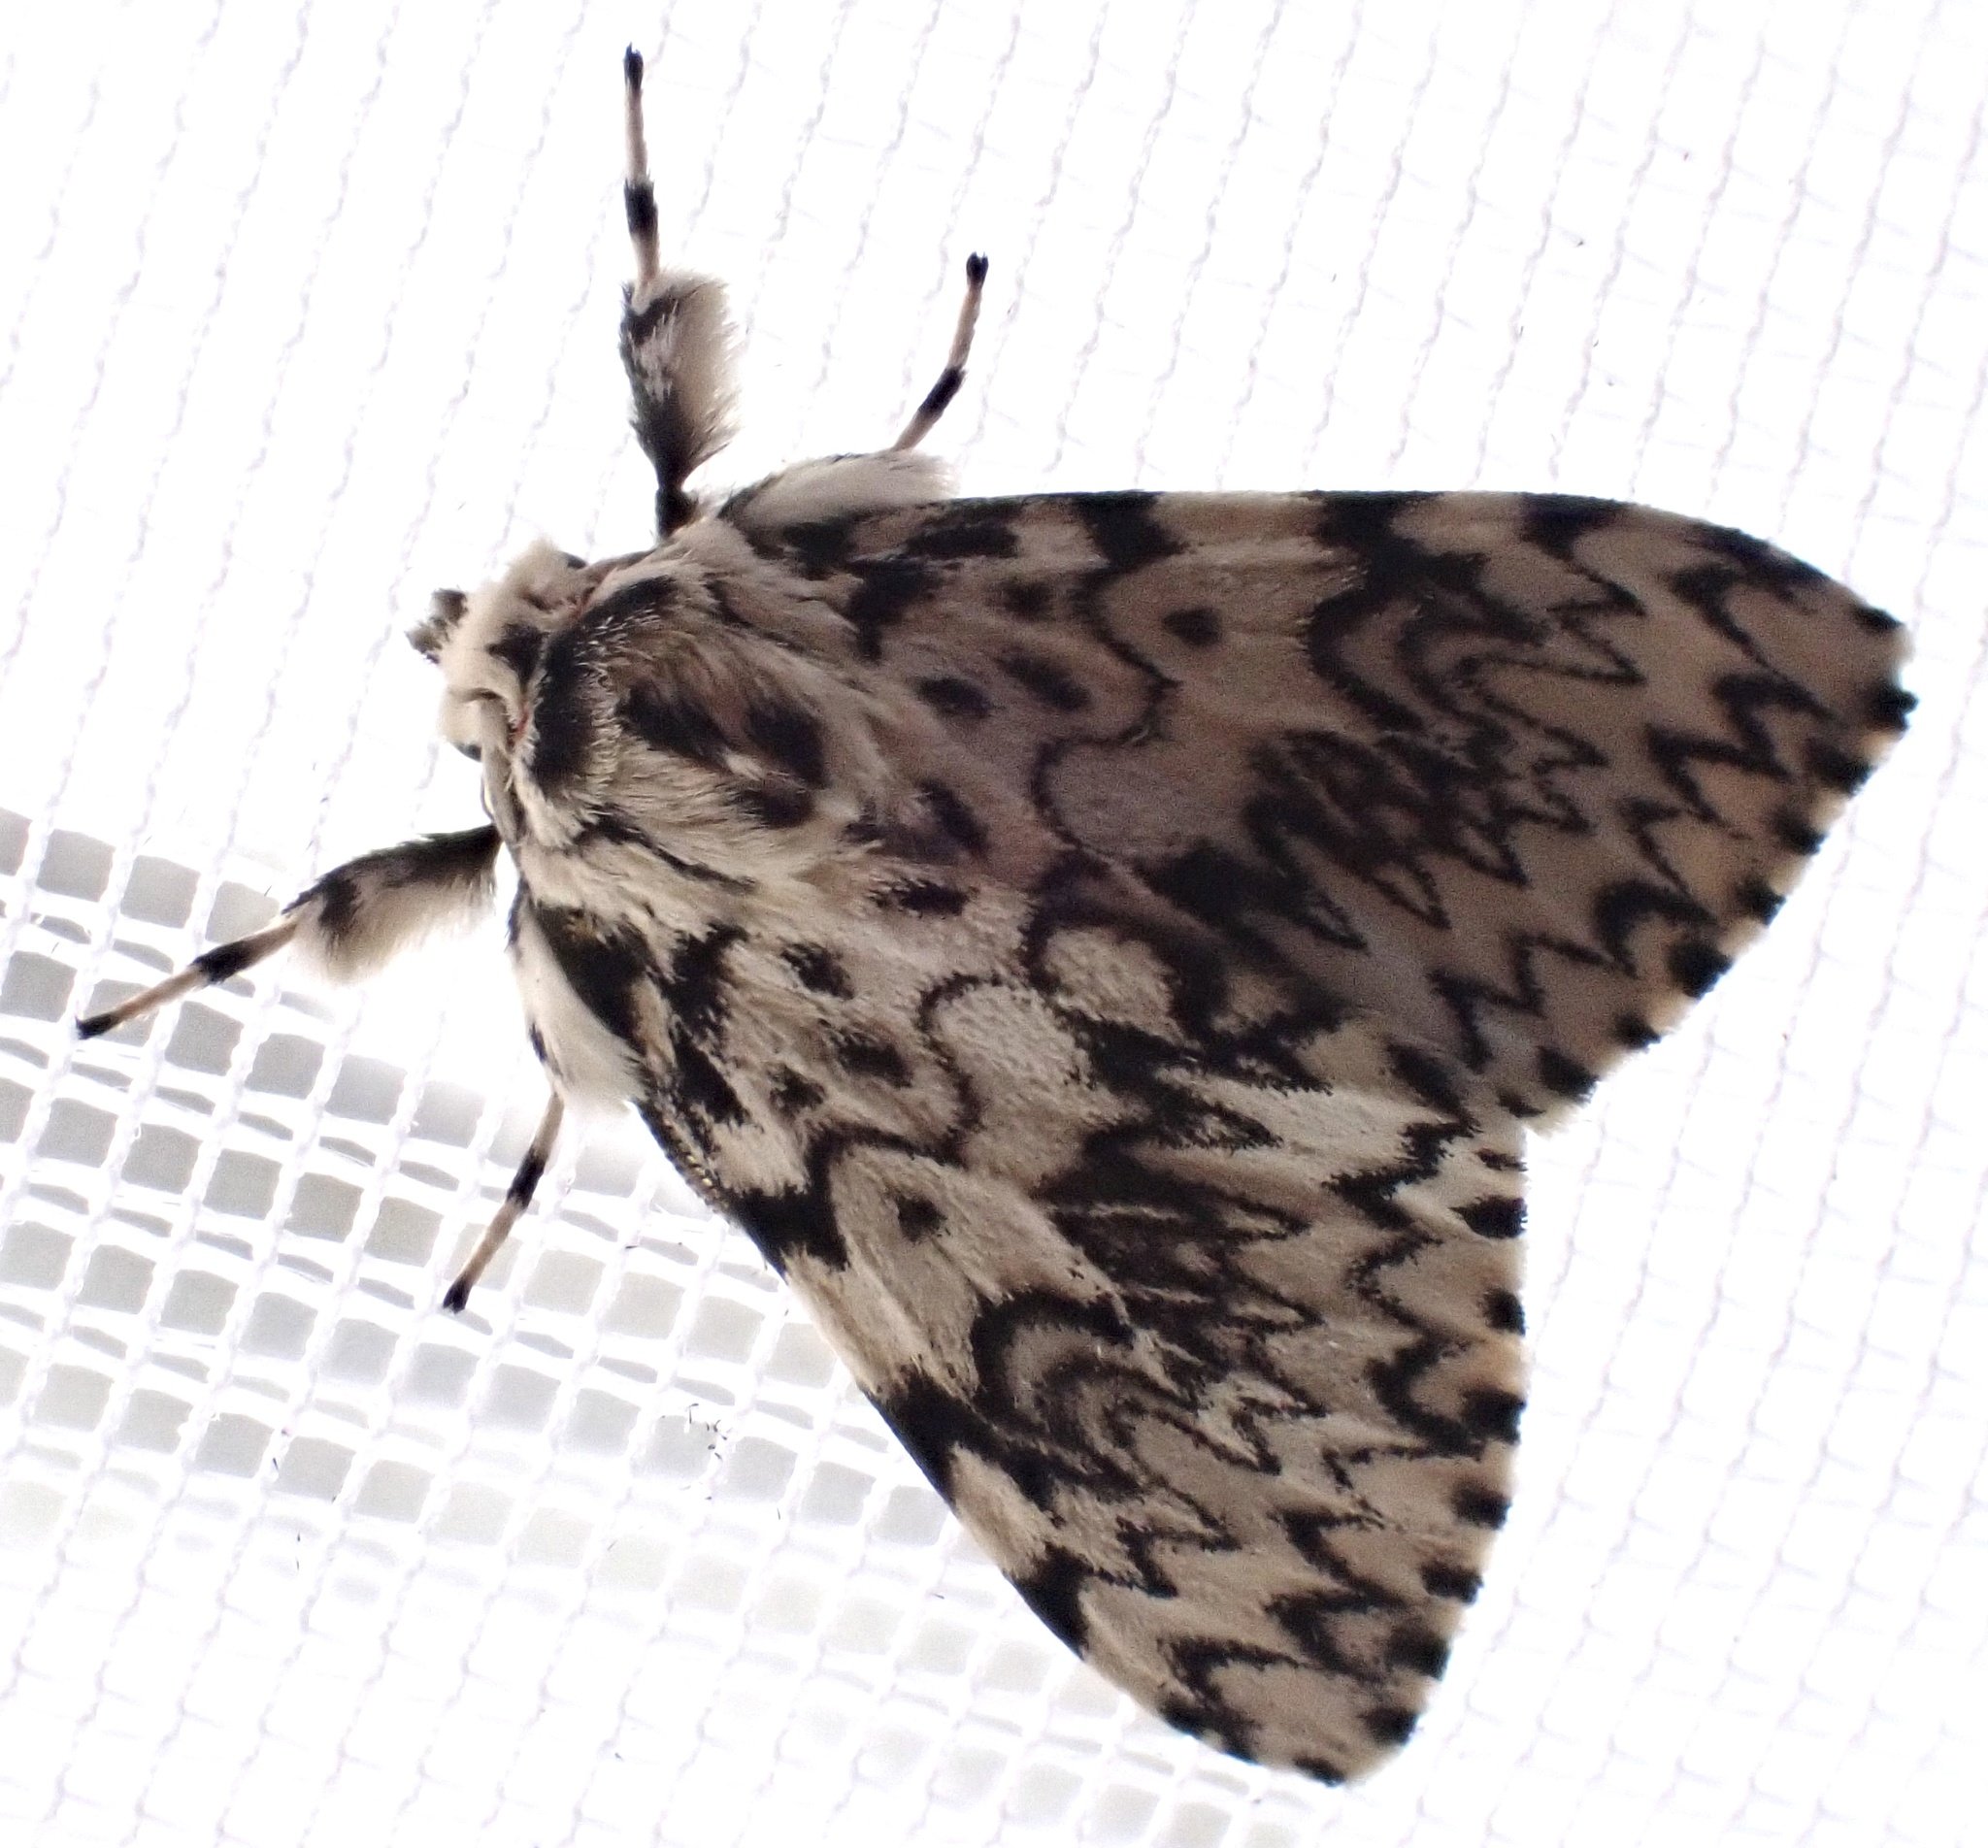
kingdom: Animalia
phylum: Arthropoda
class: Insecta
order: Lepidoptera
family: Erebidae
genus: Lymantria
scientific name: Lymantria monacha
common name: Black arches
